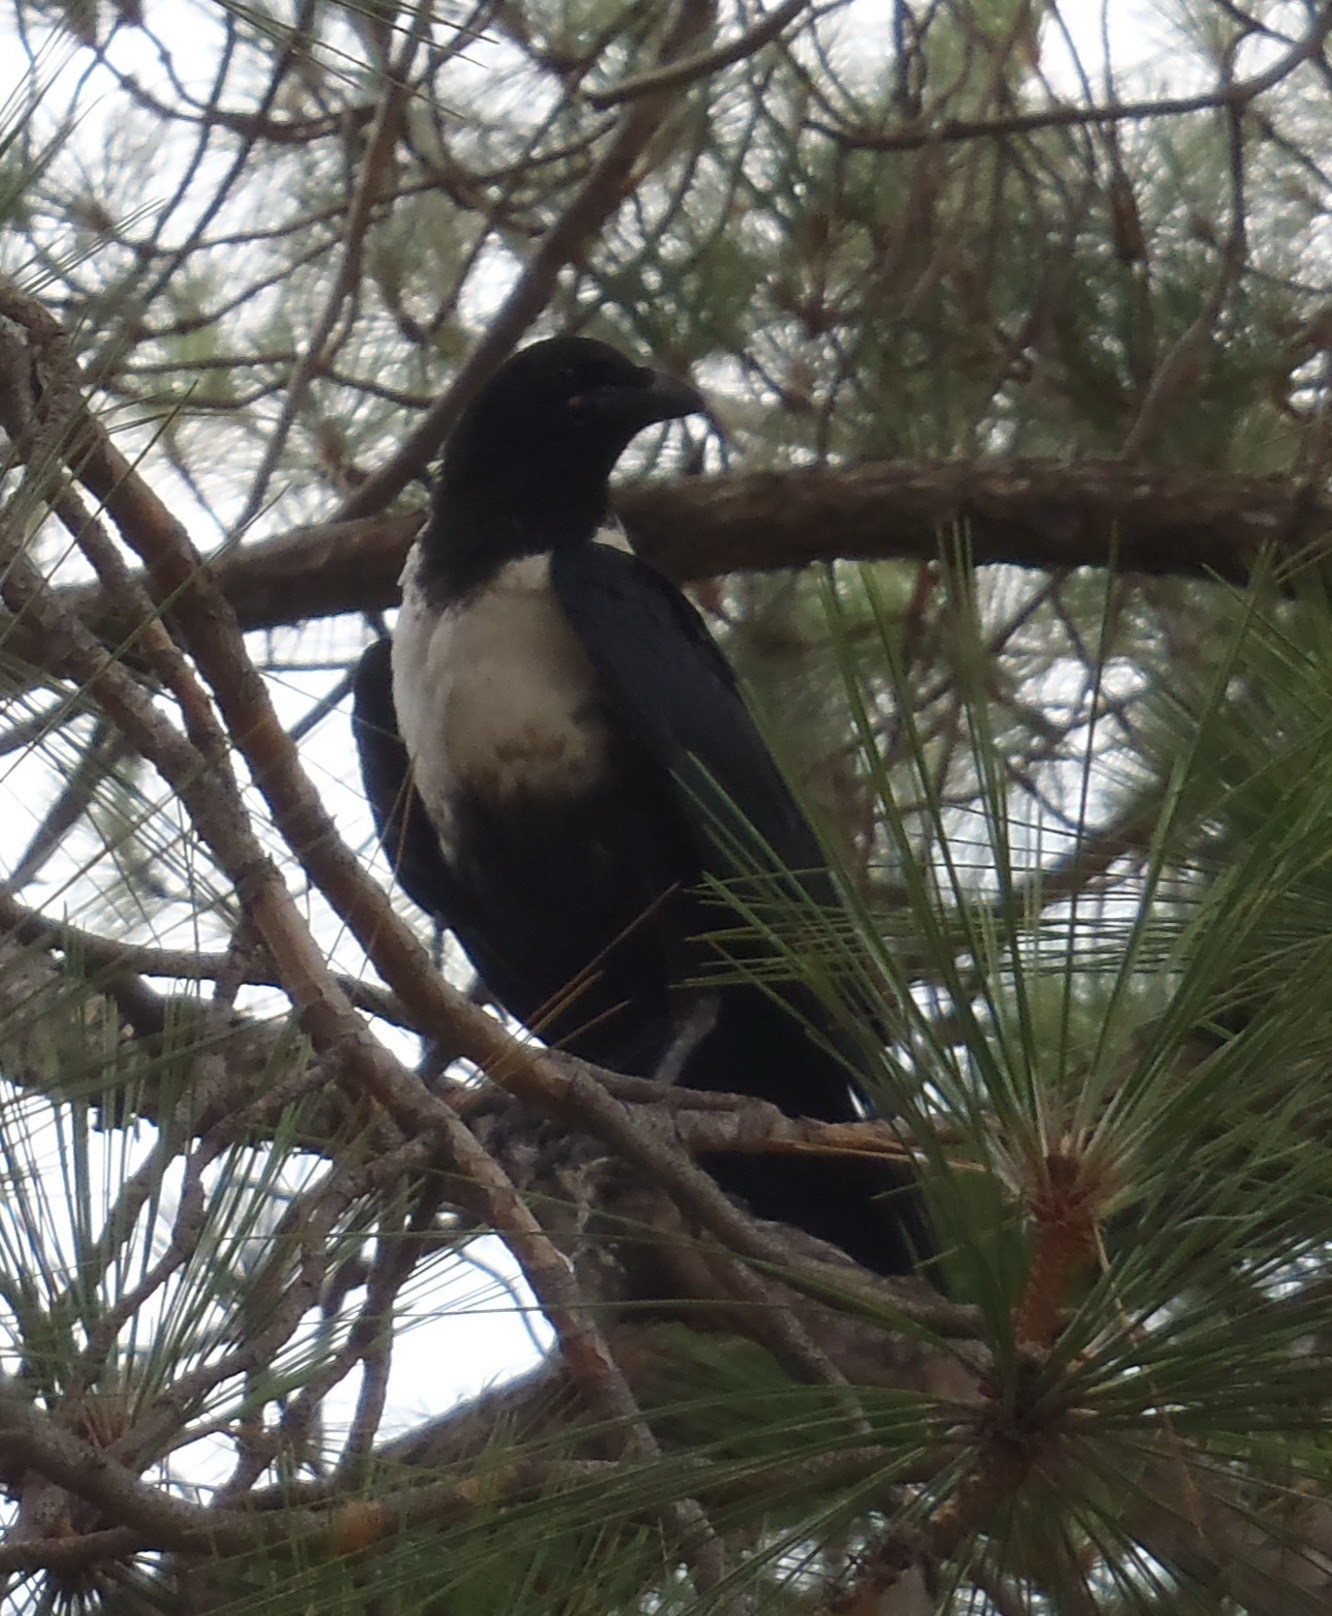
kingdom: Animalia
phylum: Chordata
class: Aves
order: Passeriformes
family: Corvidae
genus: Corvus
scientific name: Corvus albus
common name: Pied crow
